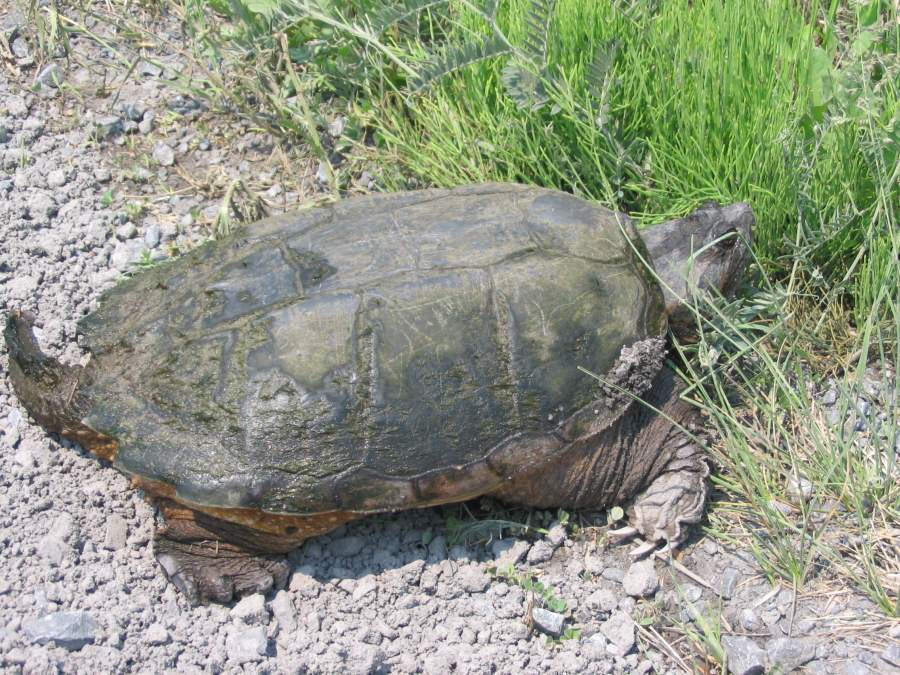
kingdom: Animalia
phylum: Chordata
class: Testudines
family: Chelydridae
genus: Chelydra
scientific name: Chelydra serpentina
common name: Common snapping turtle
